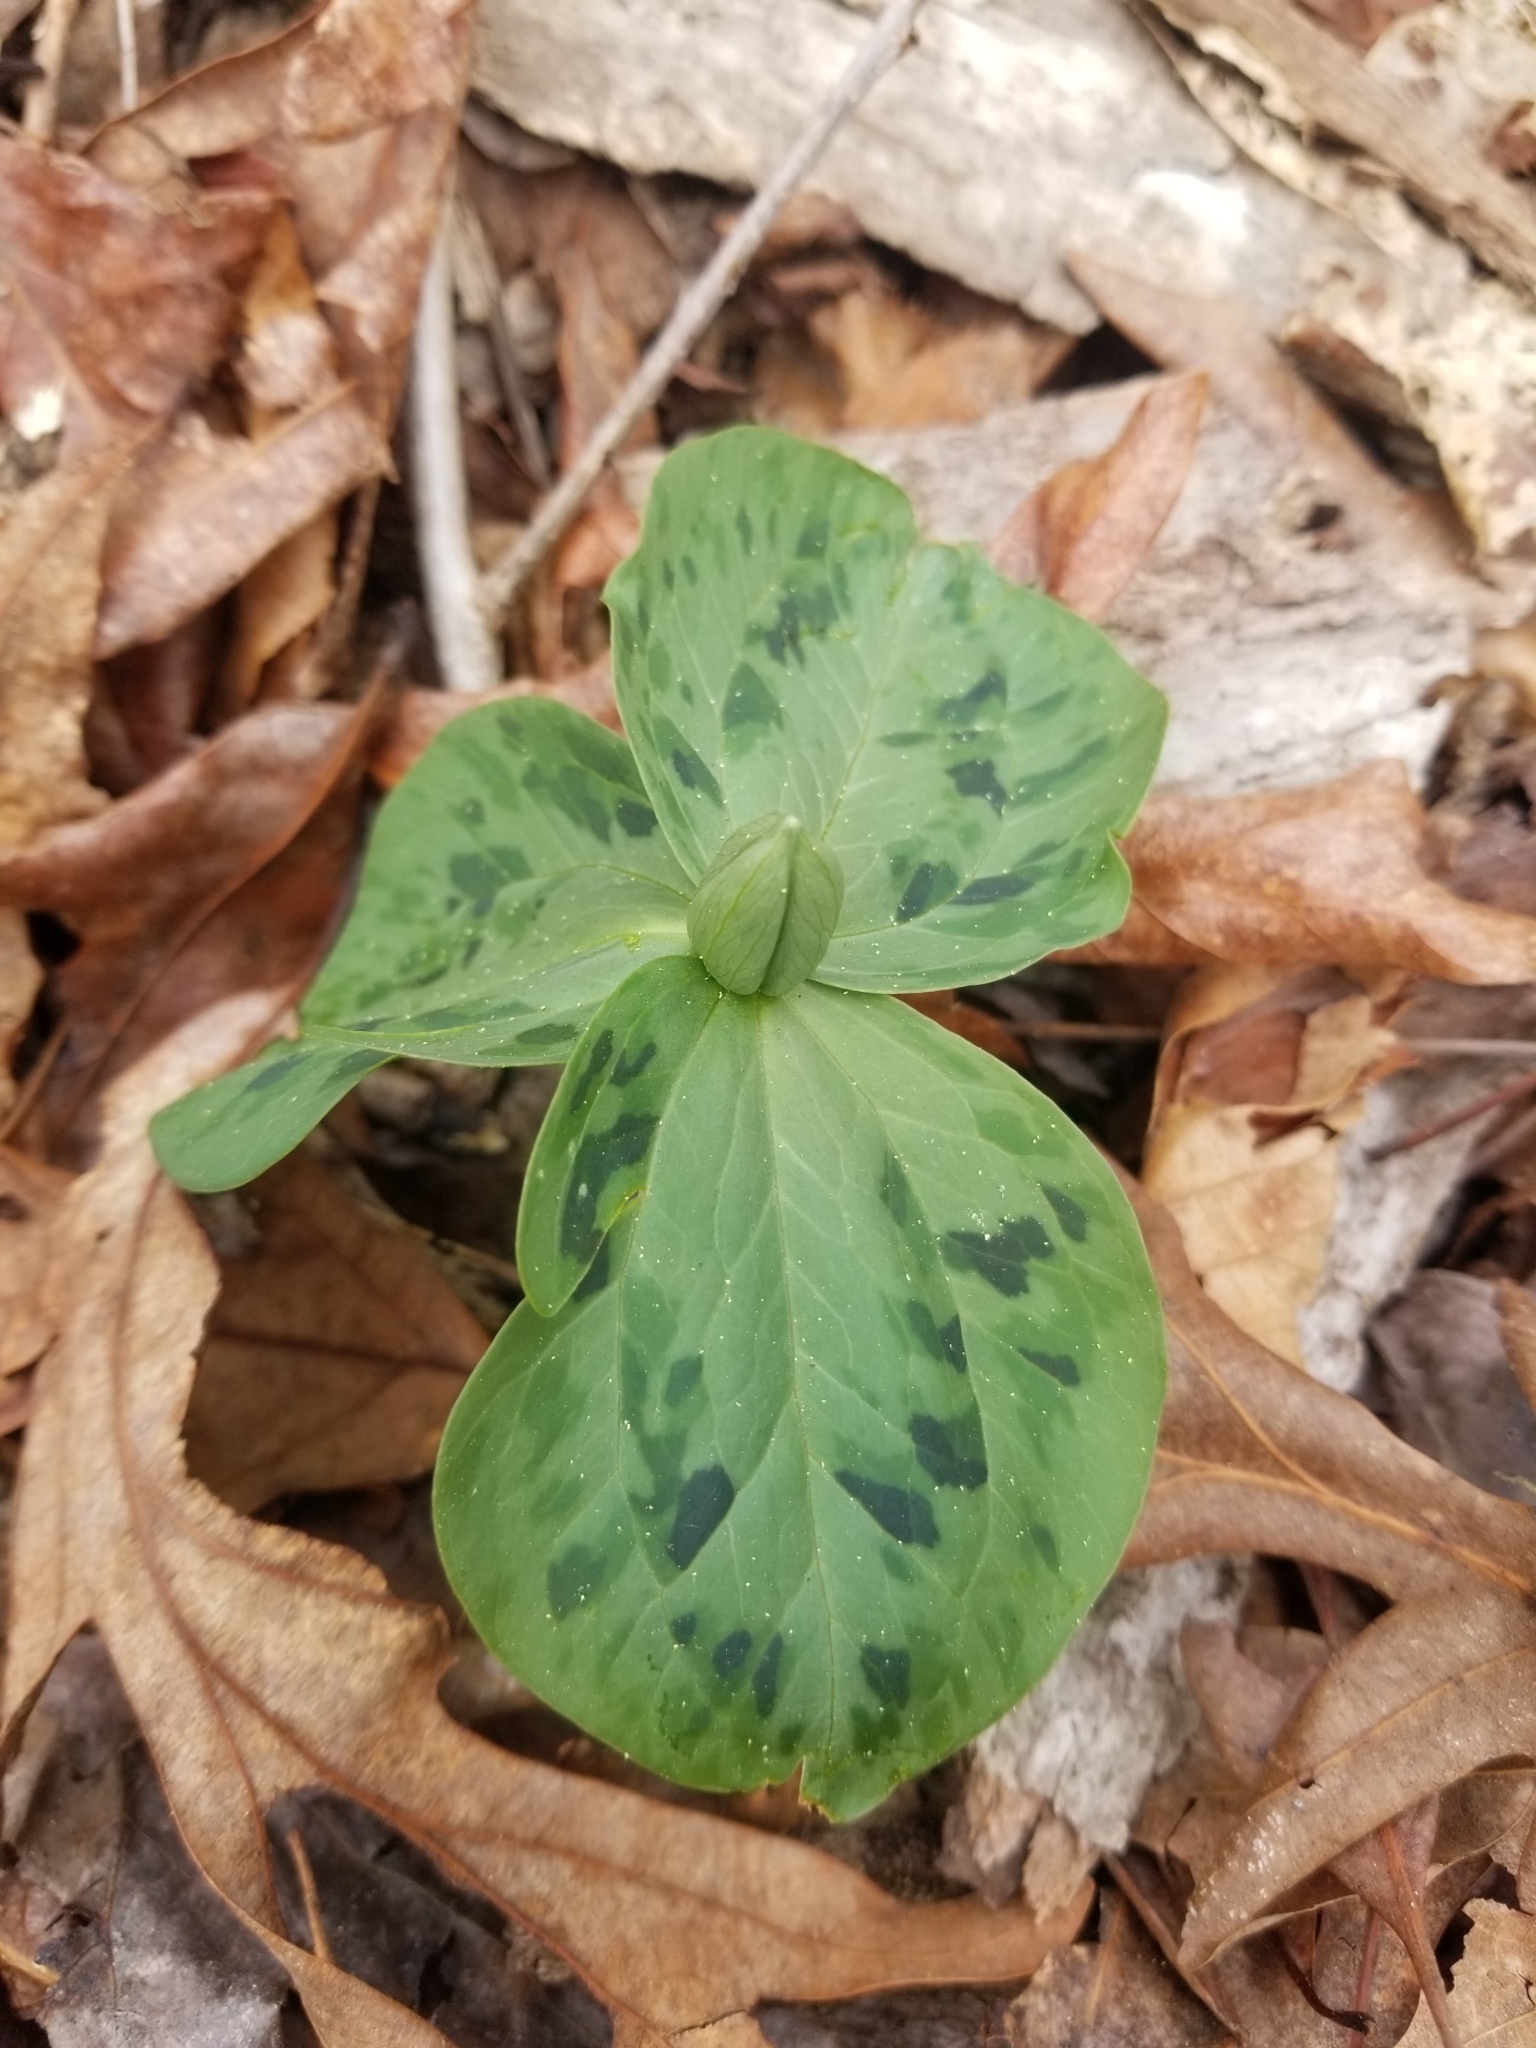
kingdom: Plantae
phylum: Tracheophyta
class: Liliopsida
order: Liliales
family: Melanthiaceae
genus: Trillium
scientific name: Trillium discolor
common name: Faded trillium
